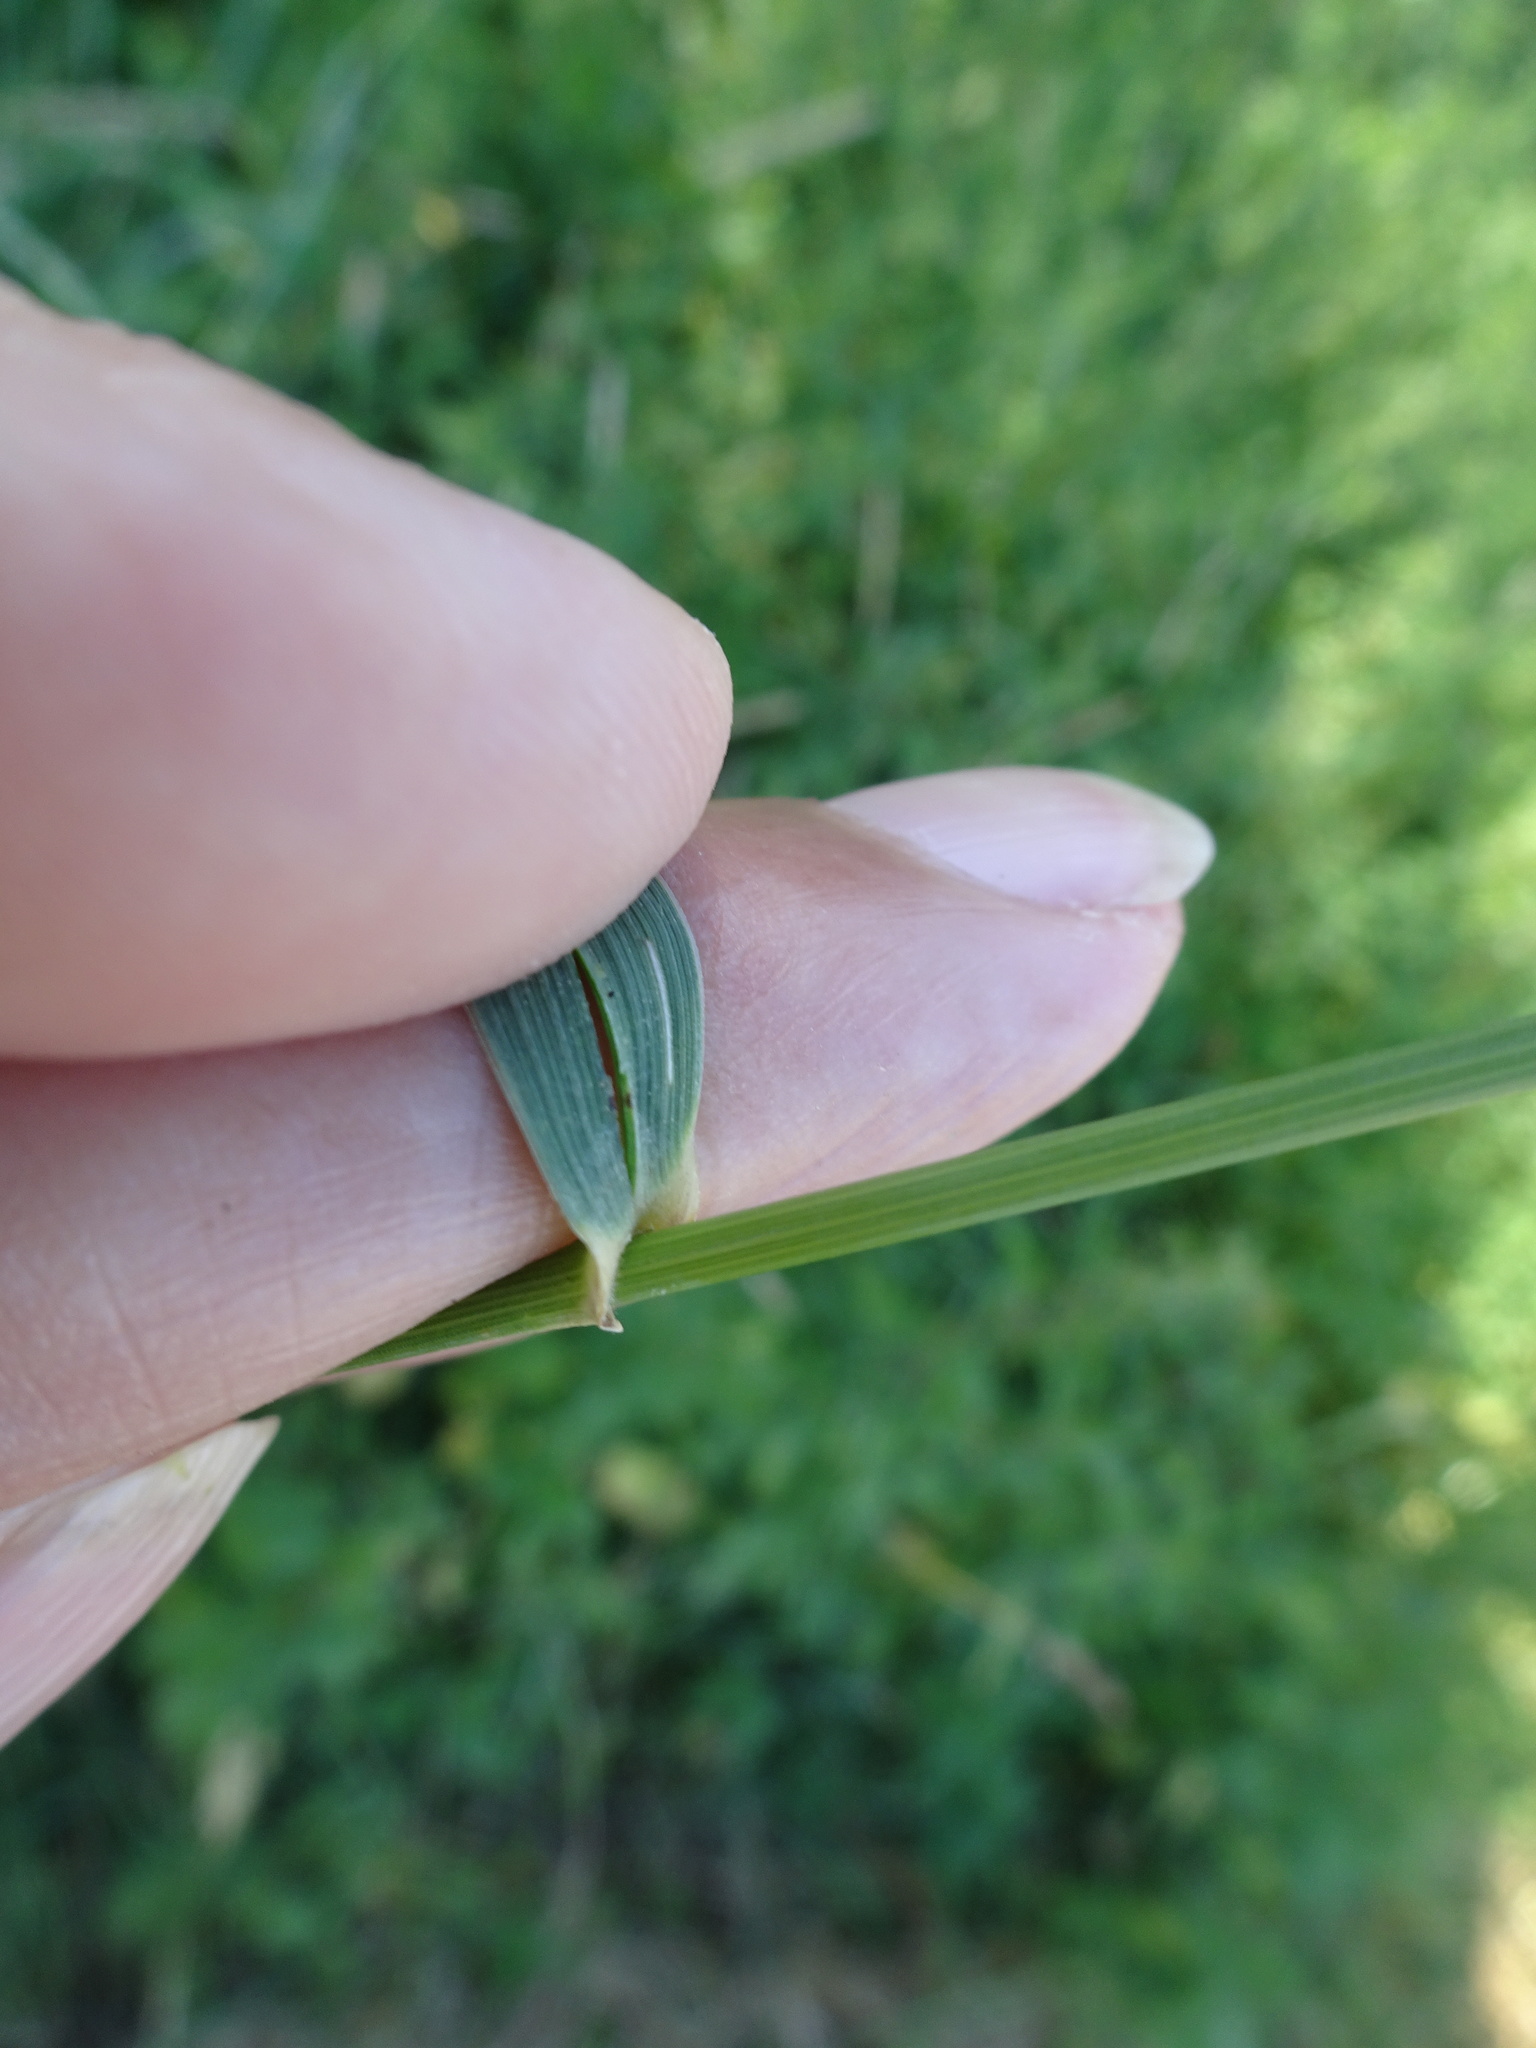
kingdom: Plantae
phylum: Tracheophyta
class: Liliopsida
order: Poales
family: Poaceae
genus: Elymus
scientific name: Elymus repens
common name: Quackgrass
